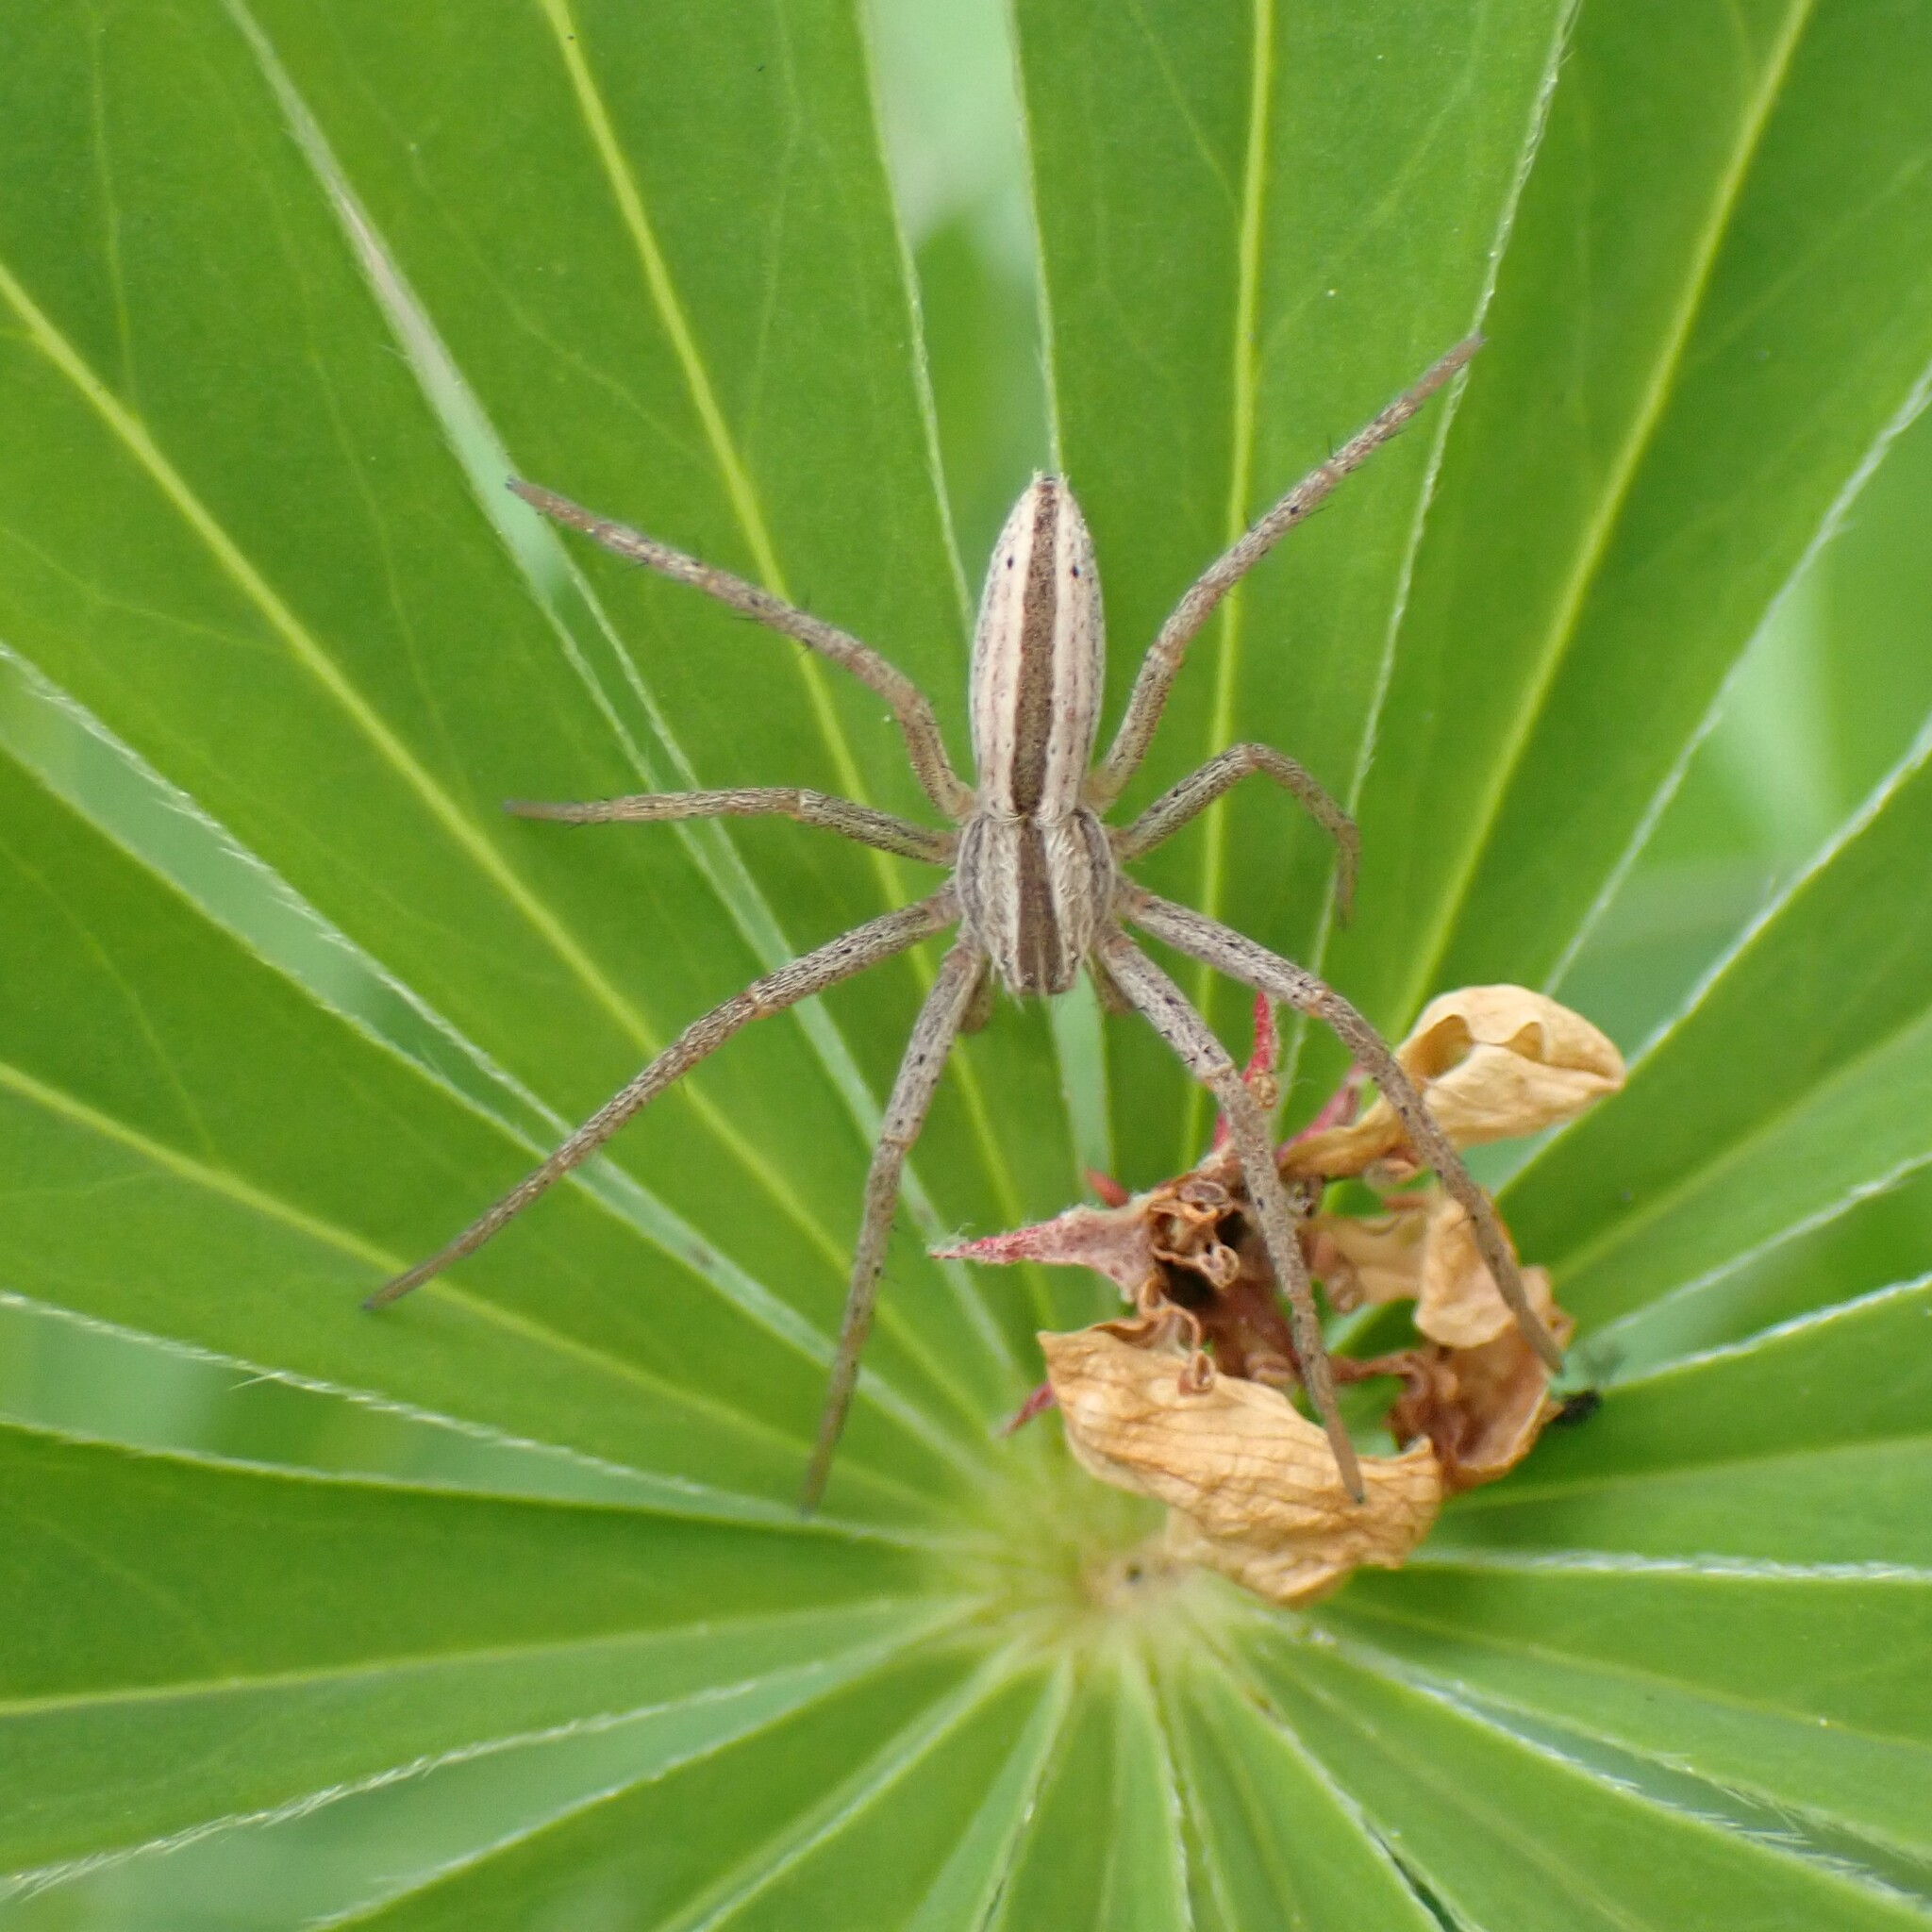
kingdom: Animalia
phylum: Arthropoda
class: Arachnida
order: Araneae
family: Philodromidae
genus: Tibellus
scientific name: Tibellus oblongus
